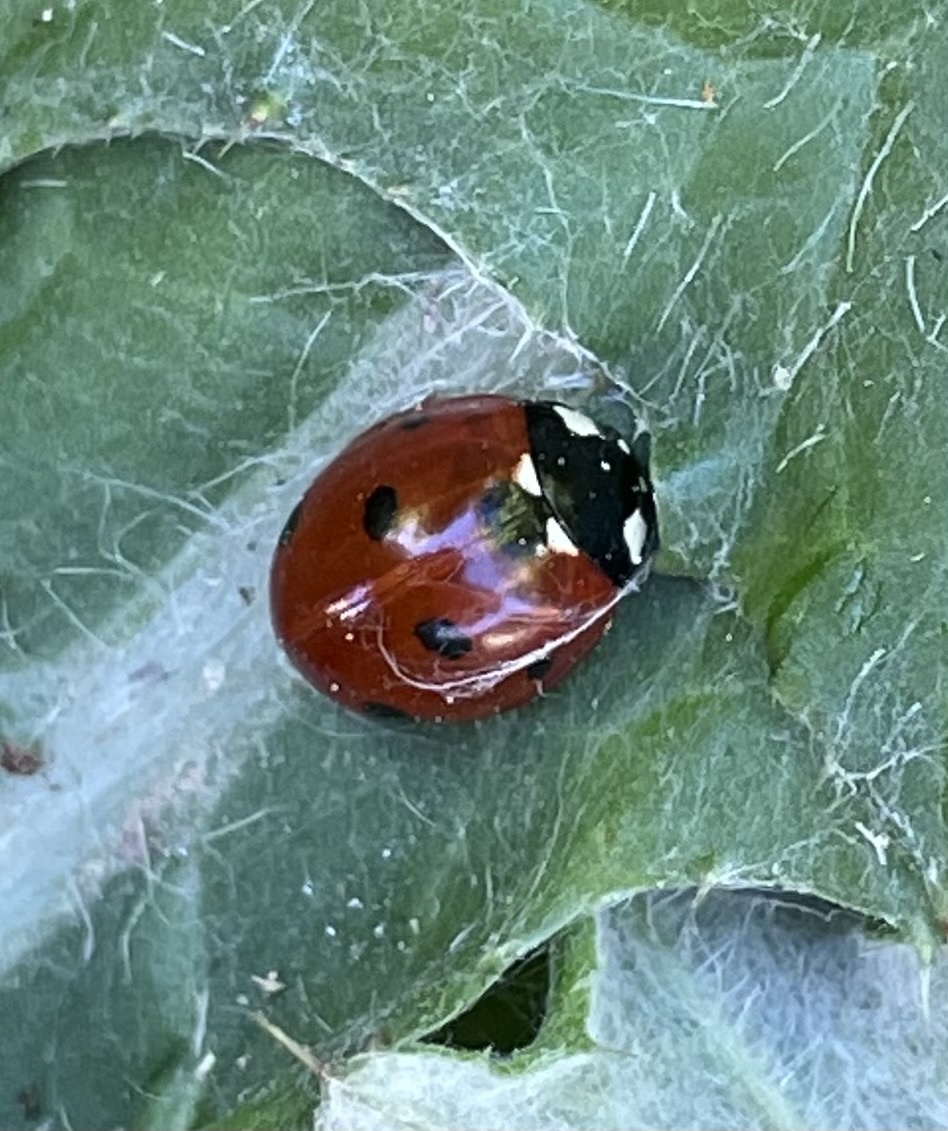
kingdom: Animalia
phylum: Arthropoda
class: Insecta
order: Coleoptera
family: Coccinellidae
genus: Coccinella
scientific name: Coccinella septempunctata
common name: Sevenspotted lady beetle
